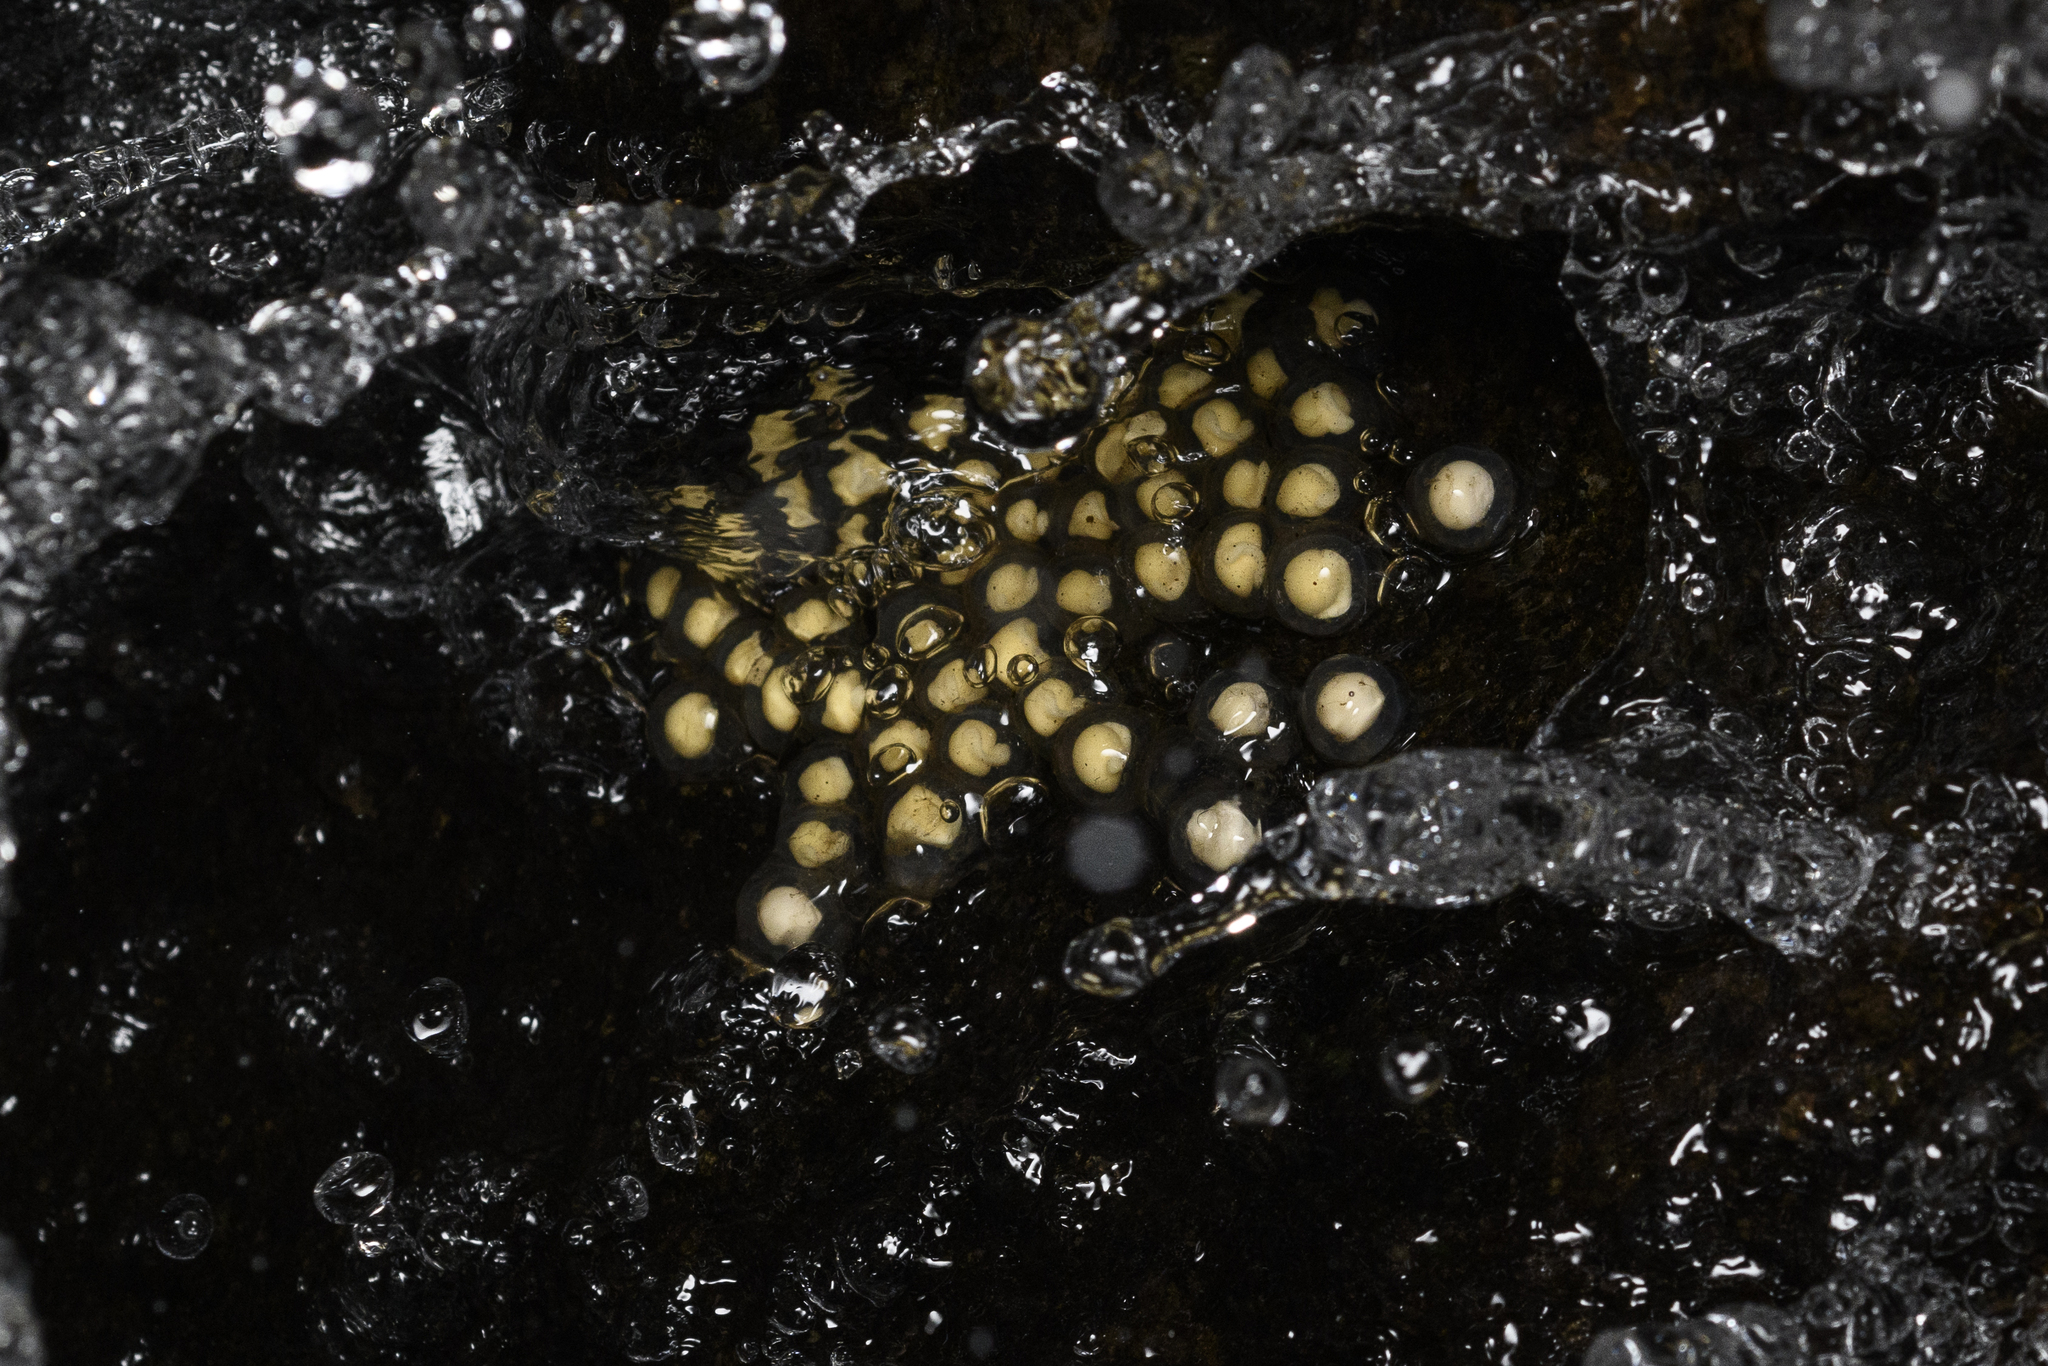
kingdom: Animalia
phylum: Chordata
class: Amphibia
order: Anura
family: Ranidae
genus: Amolops
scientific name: Amolops hongkongensis
